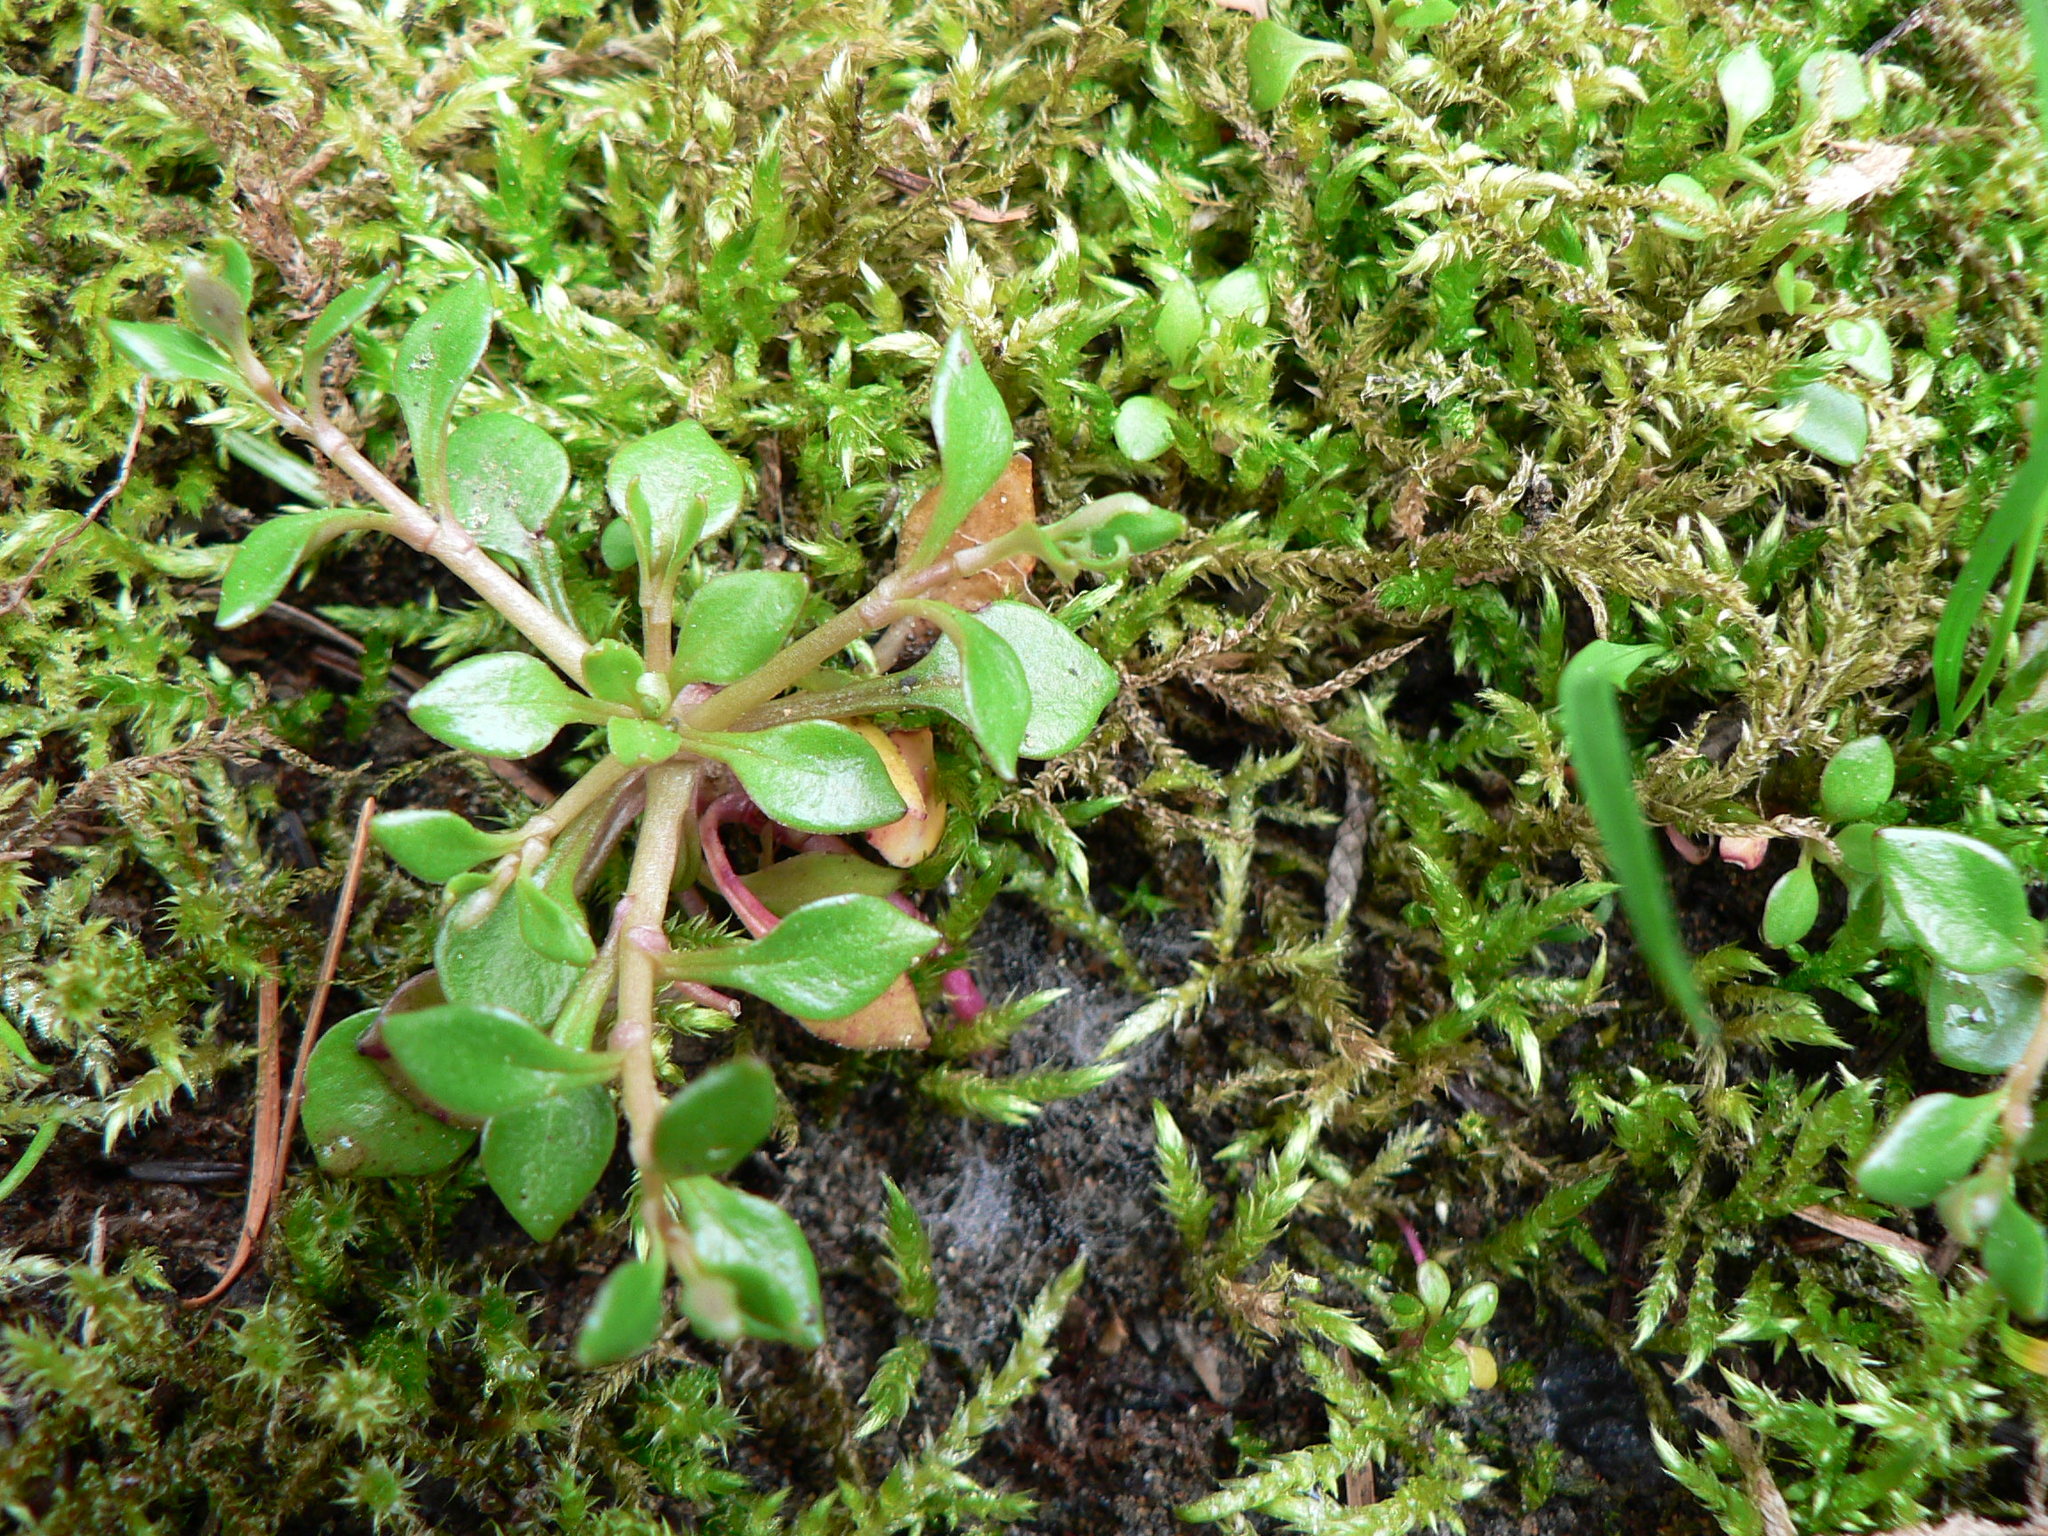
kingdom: Plantae
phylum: Tracheophyta
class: Magnoliopsida
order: Caryophyllales
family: Montiaceae
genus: Montia
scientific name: Montia parvifolia
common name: Small-leaved blinks
